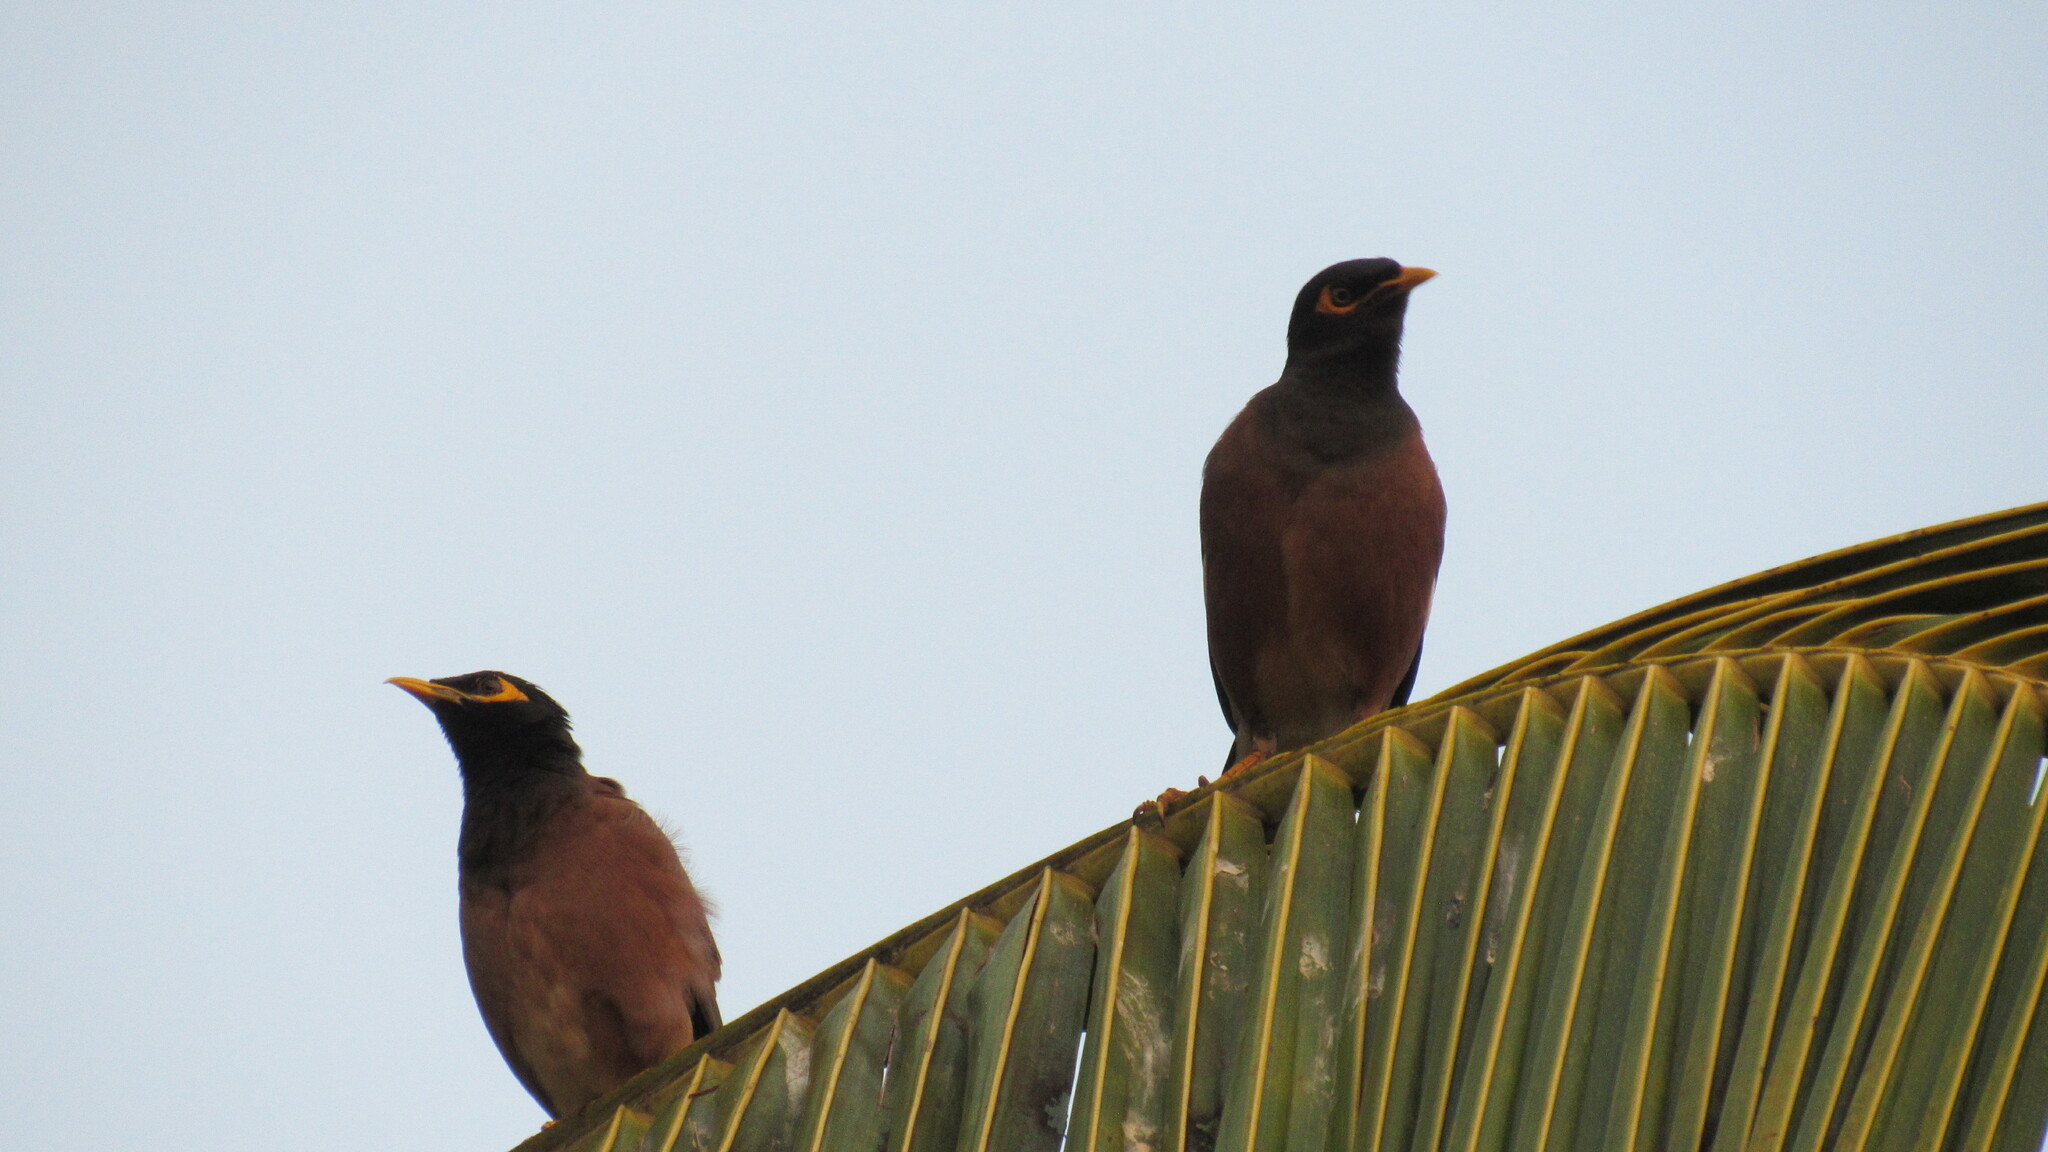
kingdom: Animalia
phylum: Chordata
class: Aves
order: Passeriformes
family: Sturnidae
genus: Acridotheres
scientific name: Acridotheres tristis
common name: Common myna
